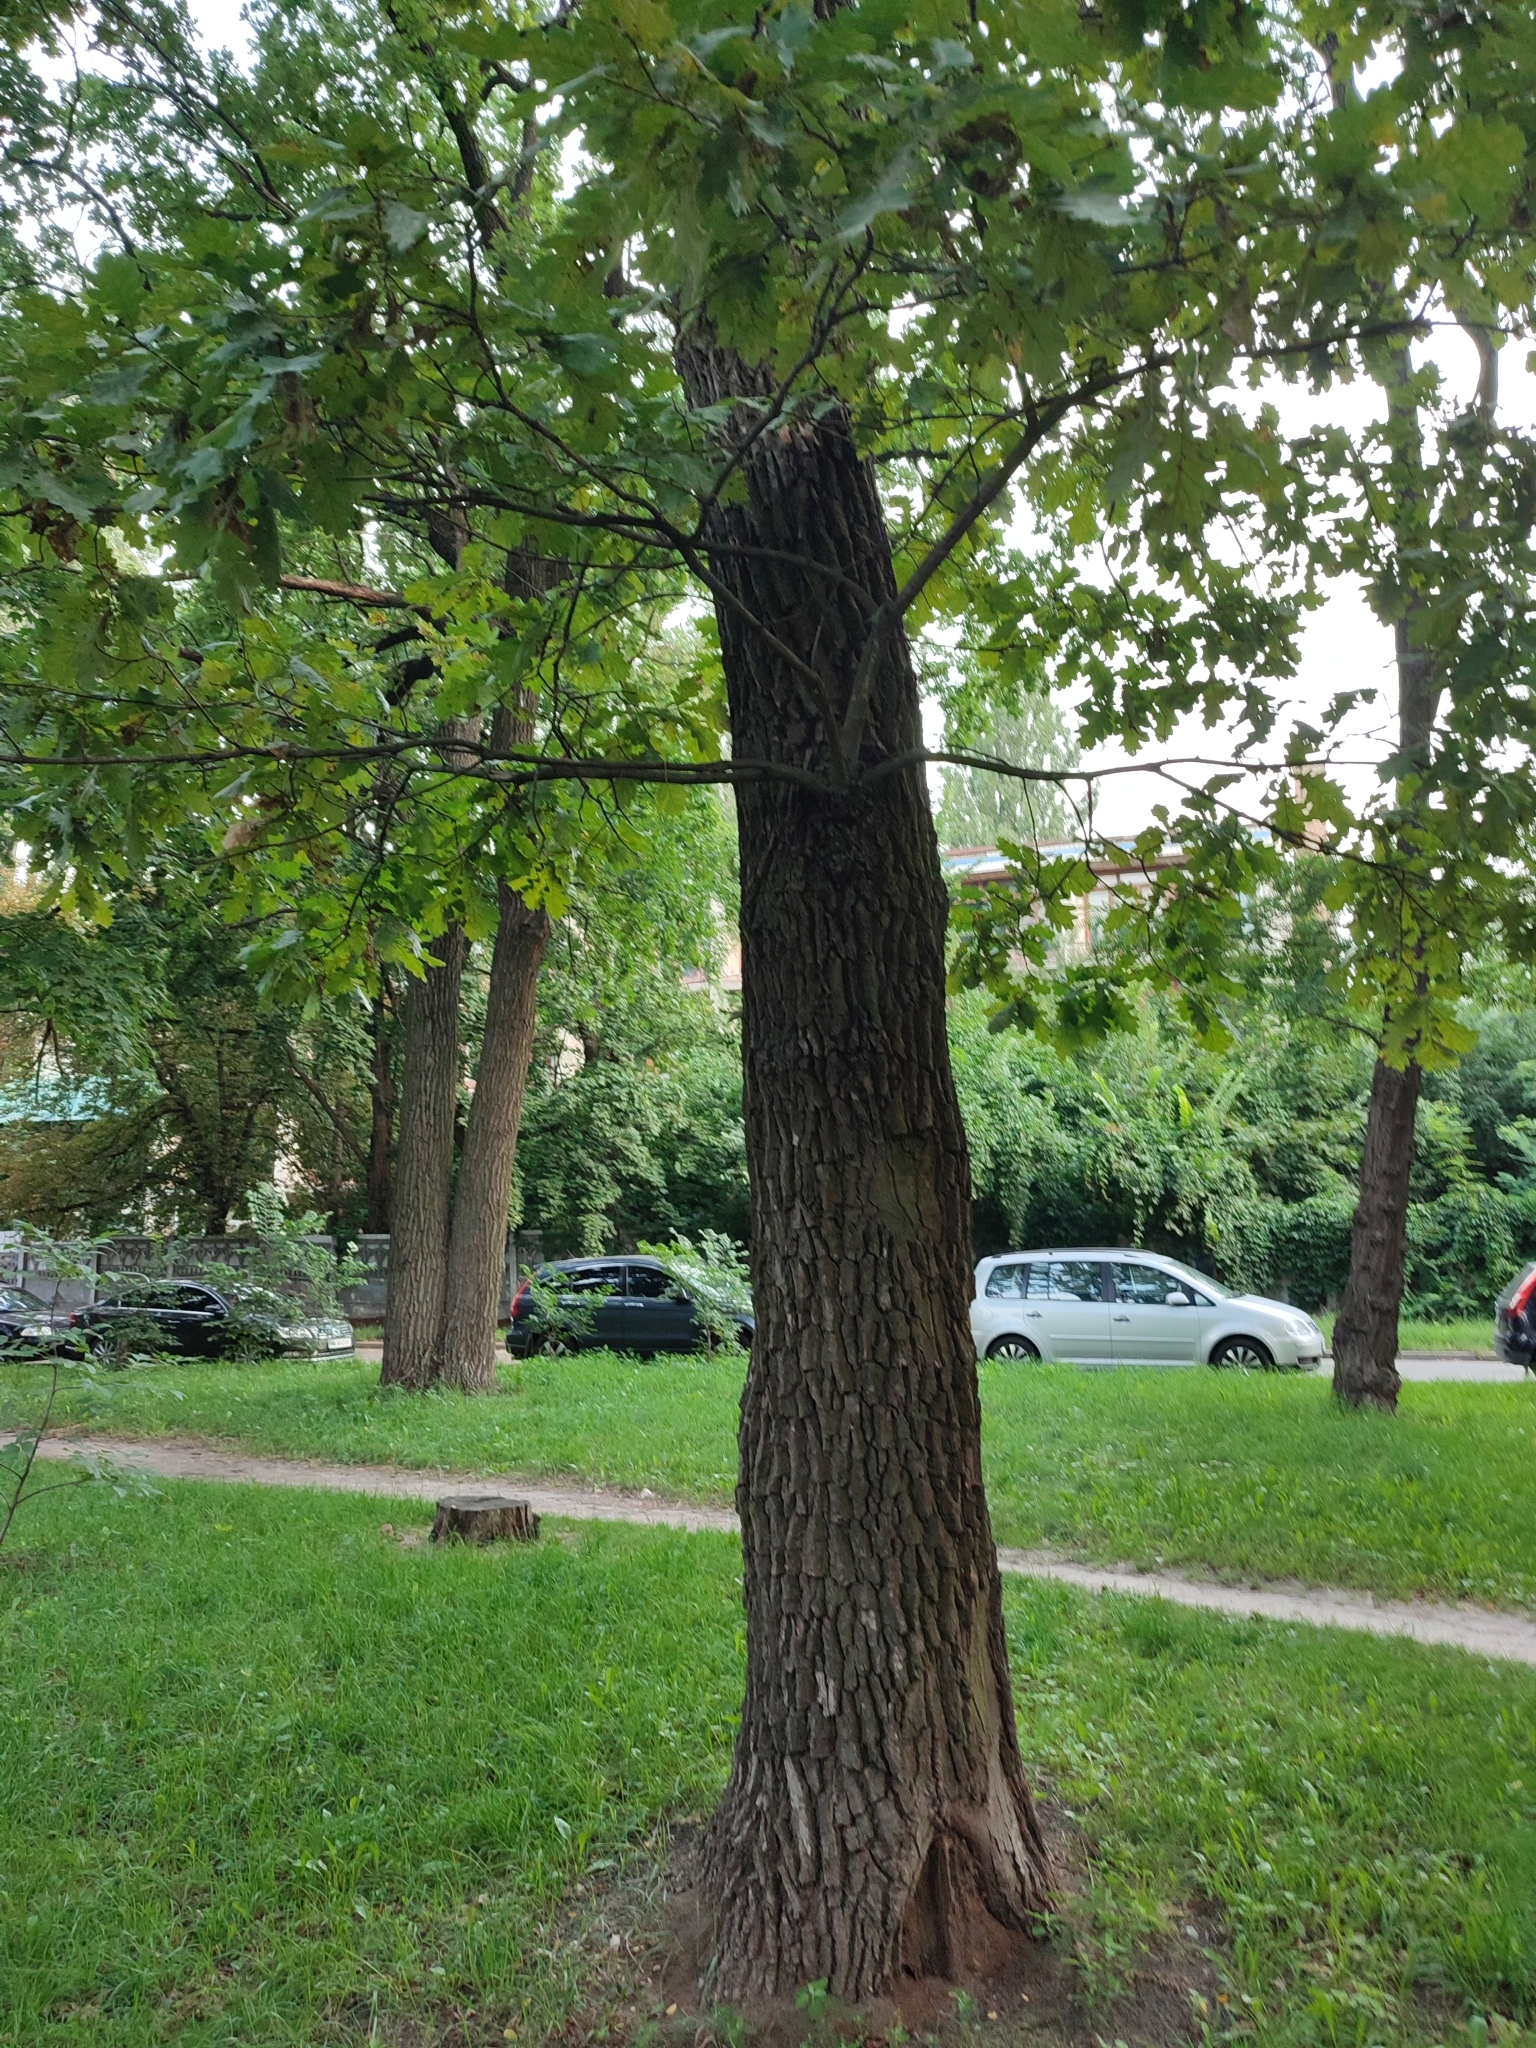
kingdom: Plantae
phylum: Tracheophyta
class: Magnoliopsida
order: Fagales
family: Fagaceae
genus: Quercus
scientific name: Quercus robur
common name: Pedunculate oak
